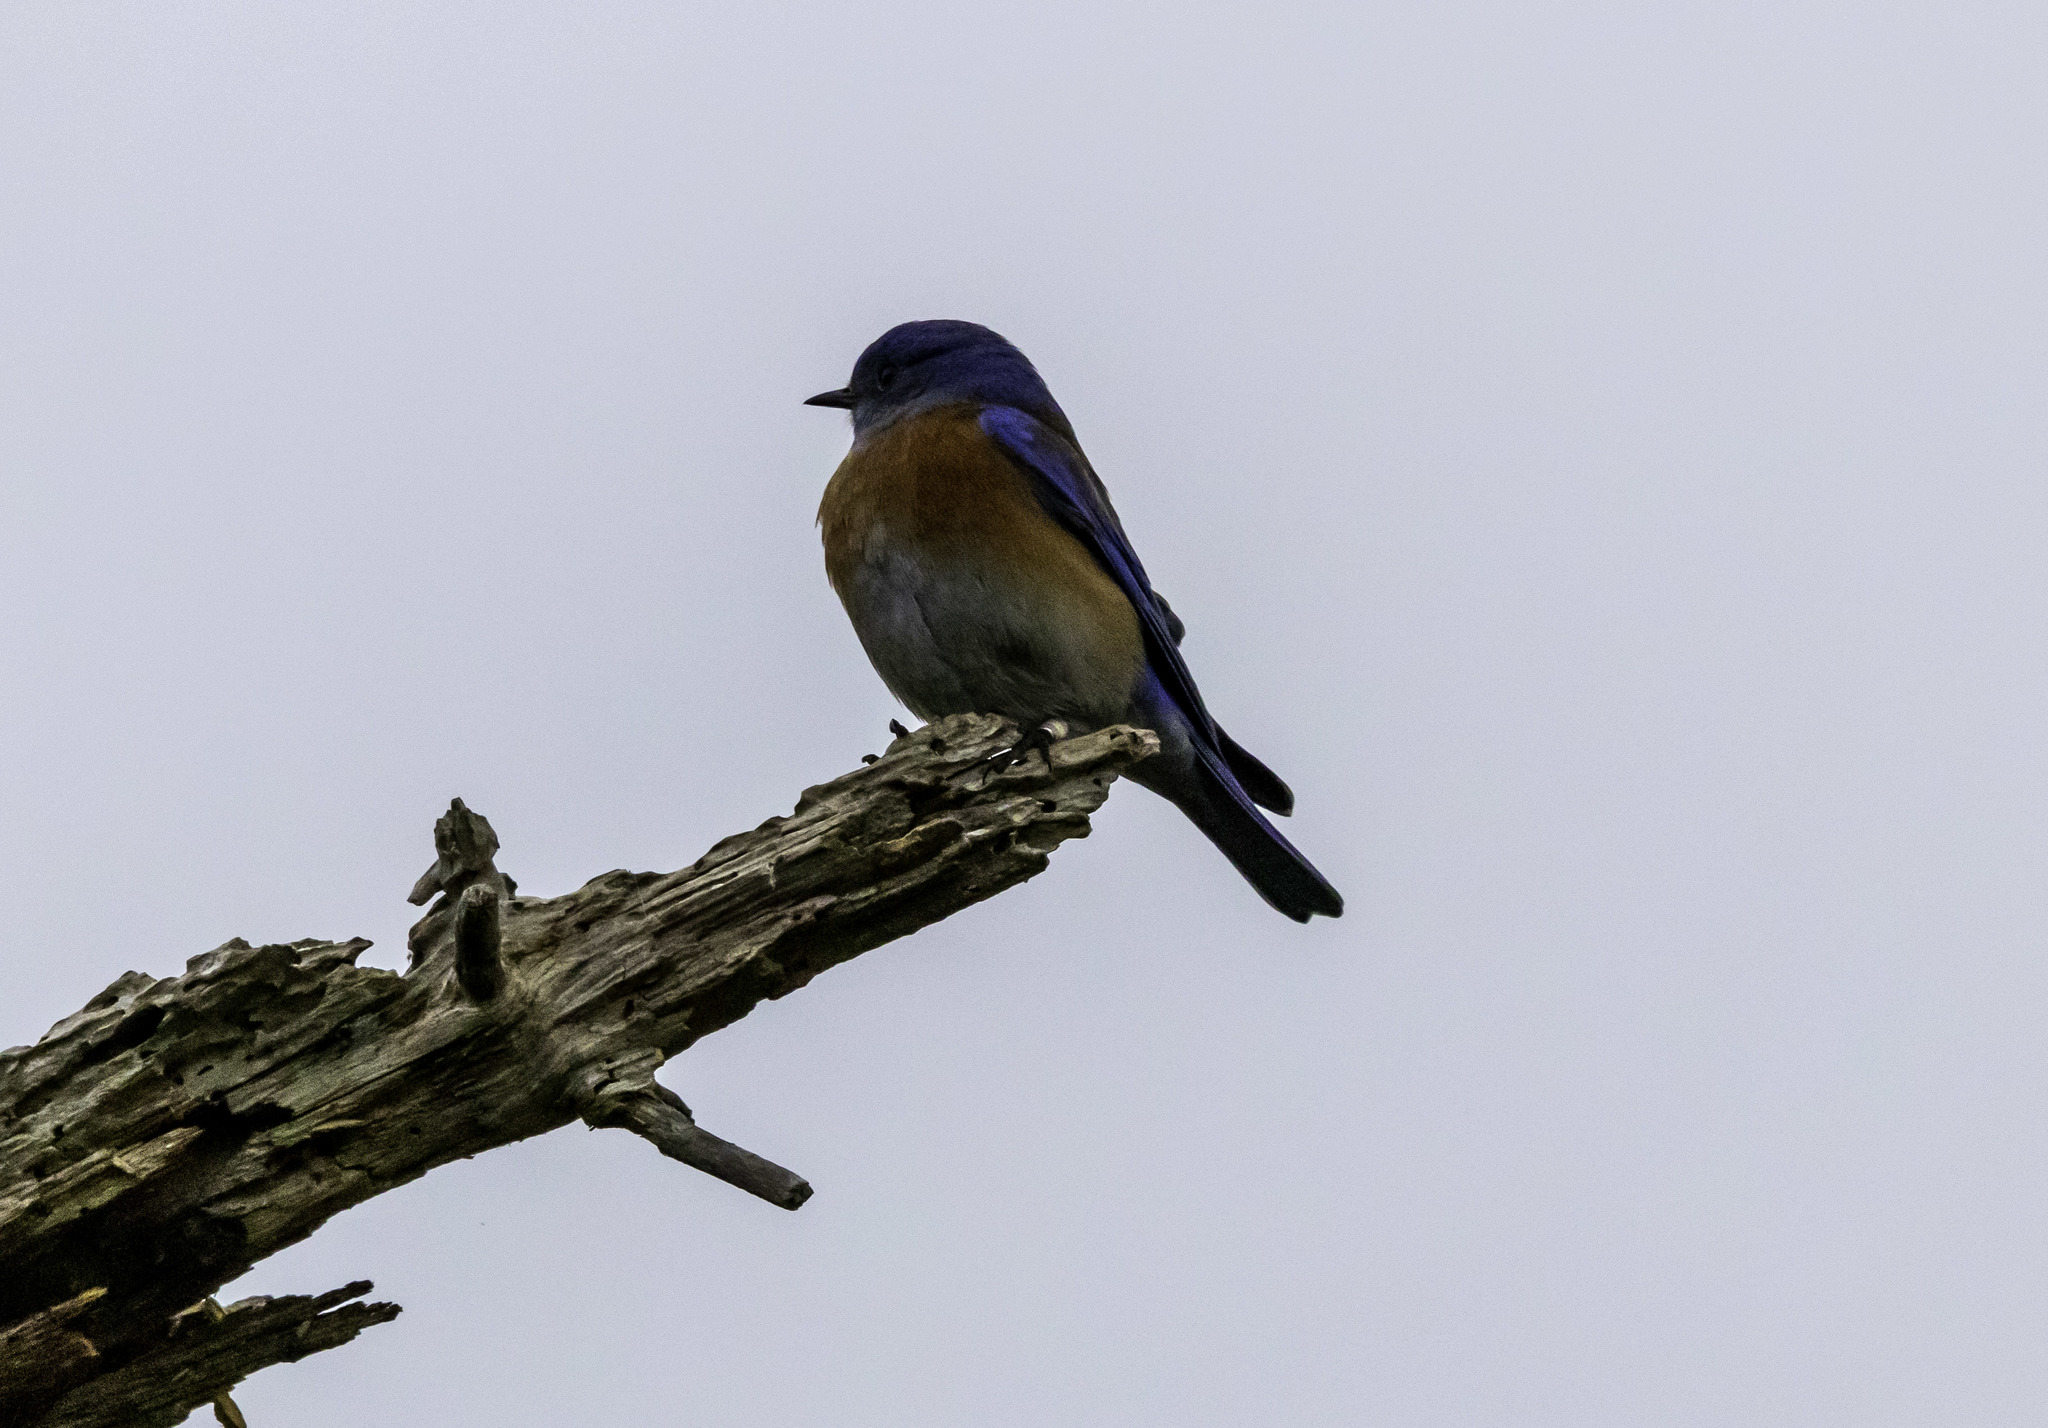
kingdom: Animalia
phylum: Chordata
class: Aves
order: Passeriformes
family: Turdidae
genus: Sialia
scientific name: Sialia mexicana
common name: Western bluebird
